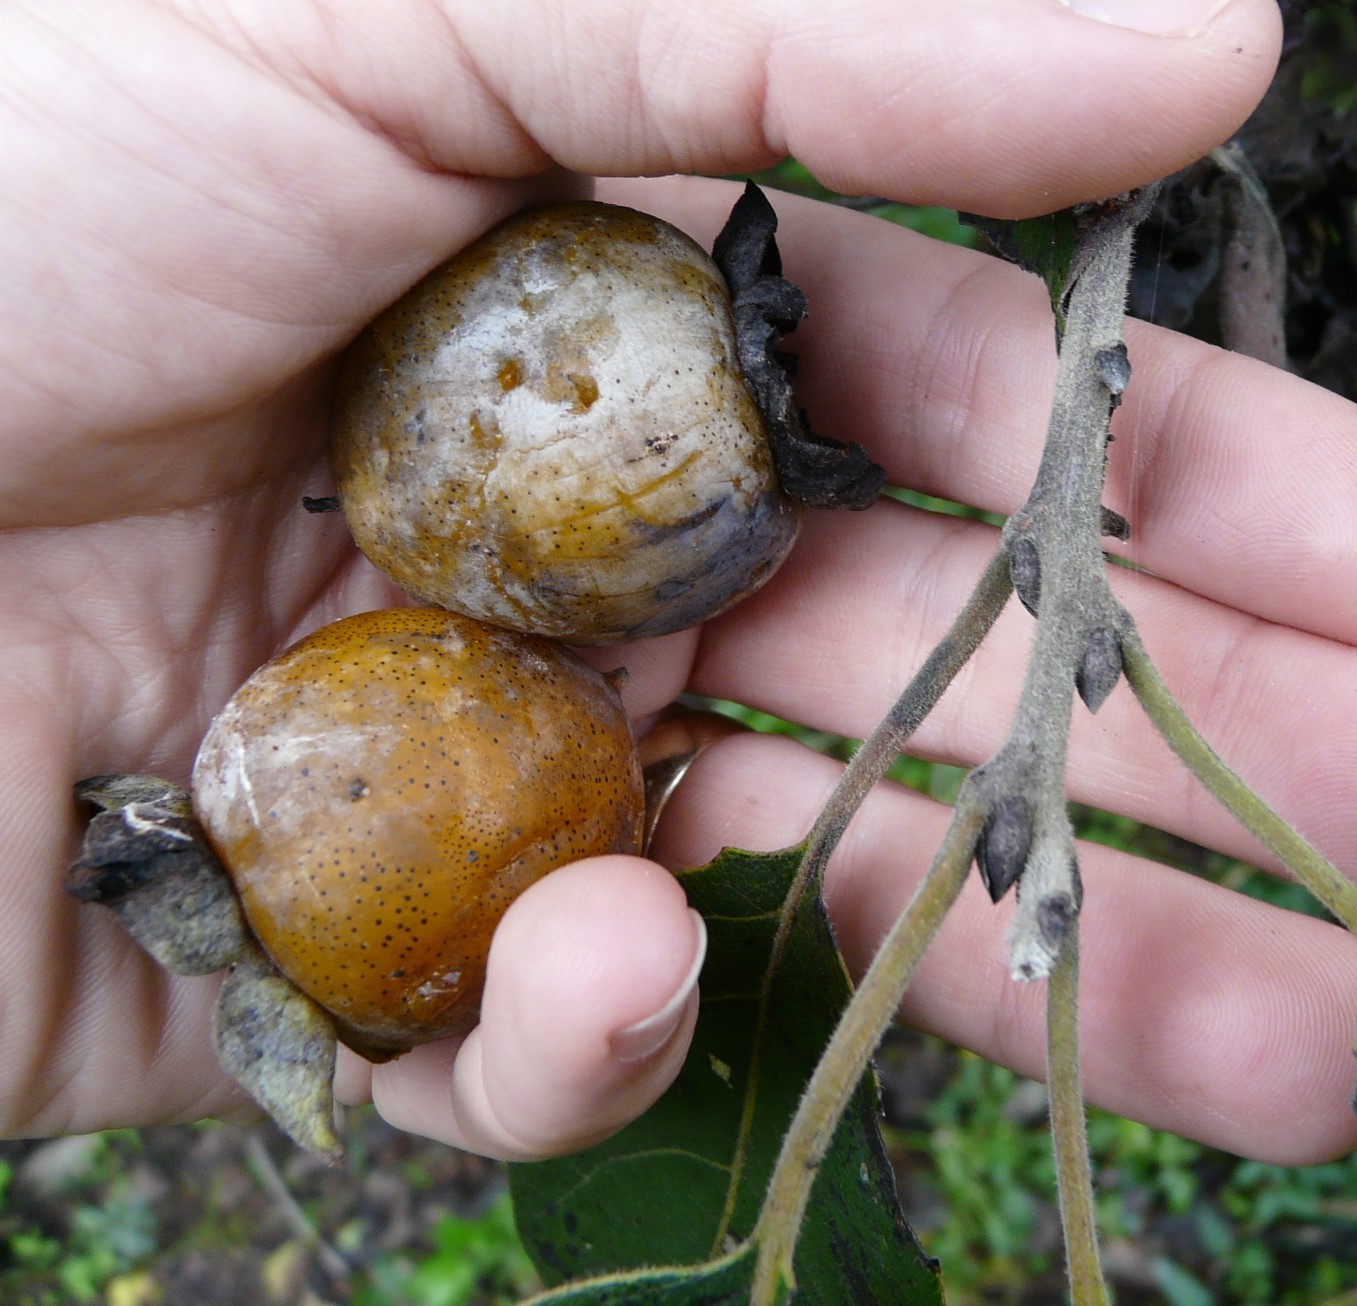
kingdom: Plantae
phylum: Tracheophyta
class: Magnoliopsida
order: Ericales
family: Ebenaceae
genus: Diospyros
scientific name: Diospyros virginiana
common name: Persimmon
